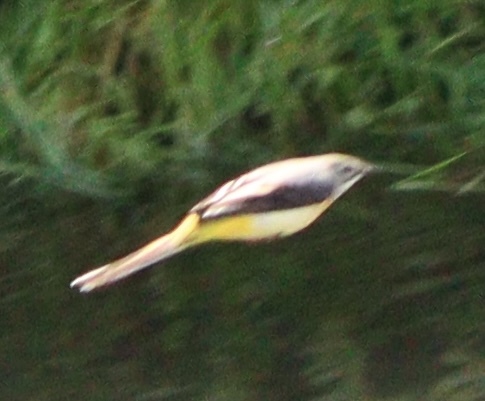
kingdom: Animalia
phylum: Chordata
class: Aves
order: Passeriformes
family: Motacillidae
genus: Motacilla
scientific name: Motacilla cinerea
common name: Grey wagtail
